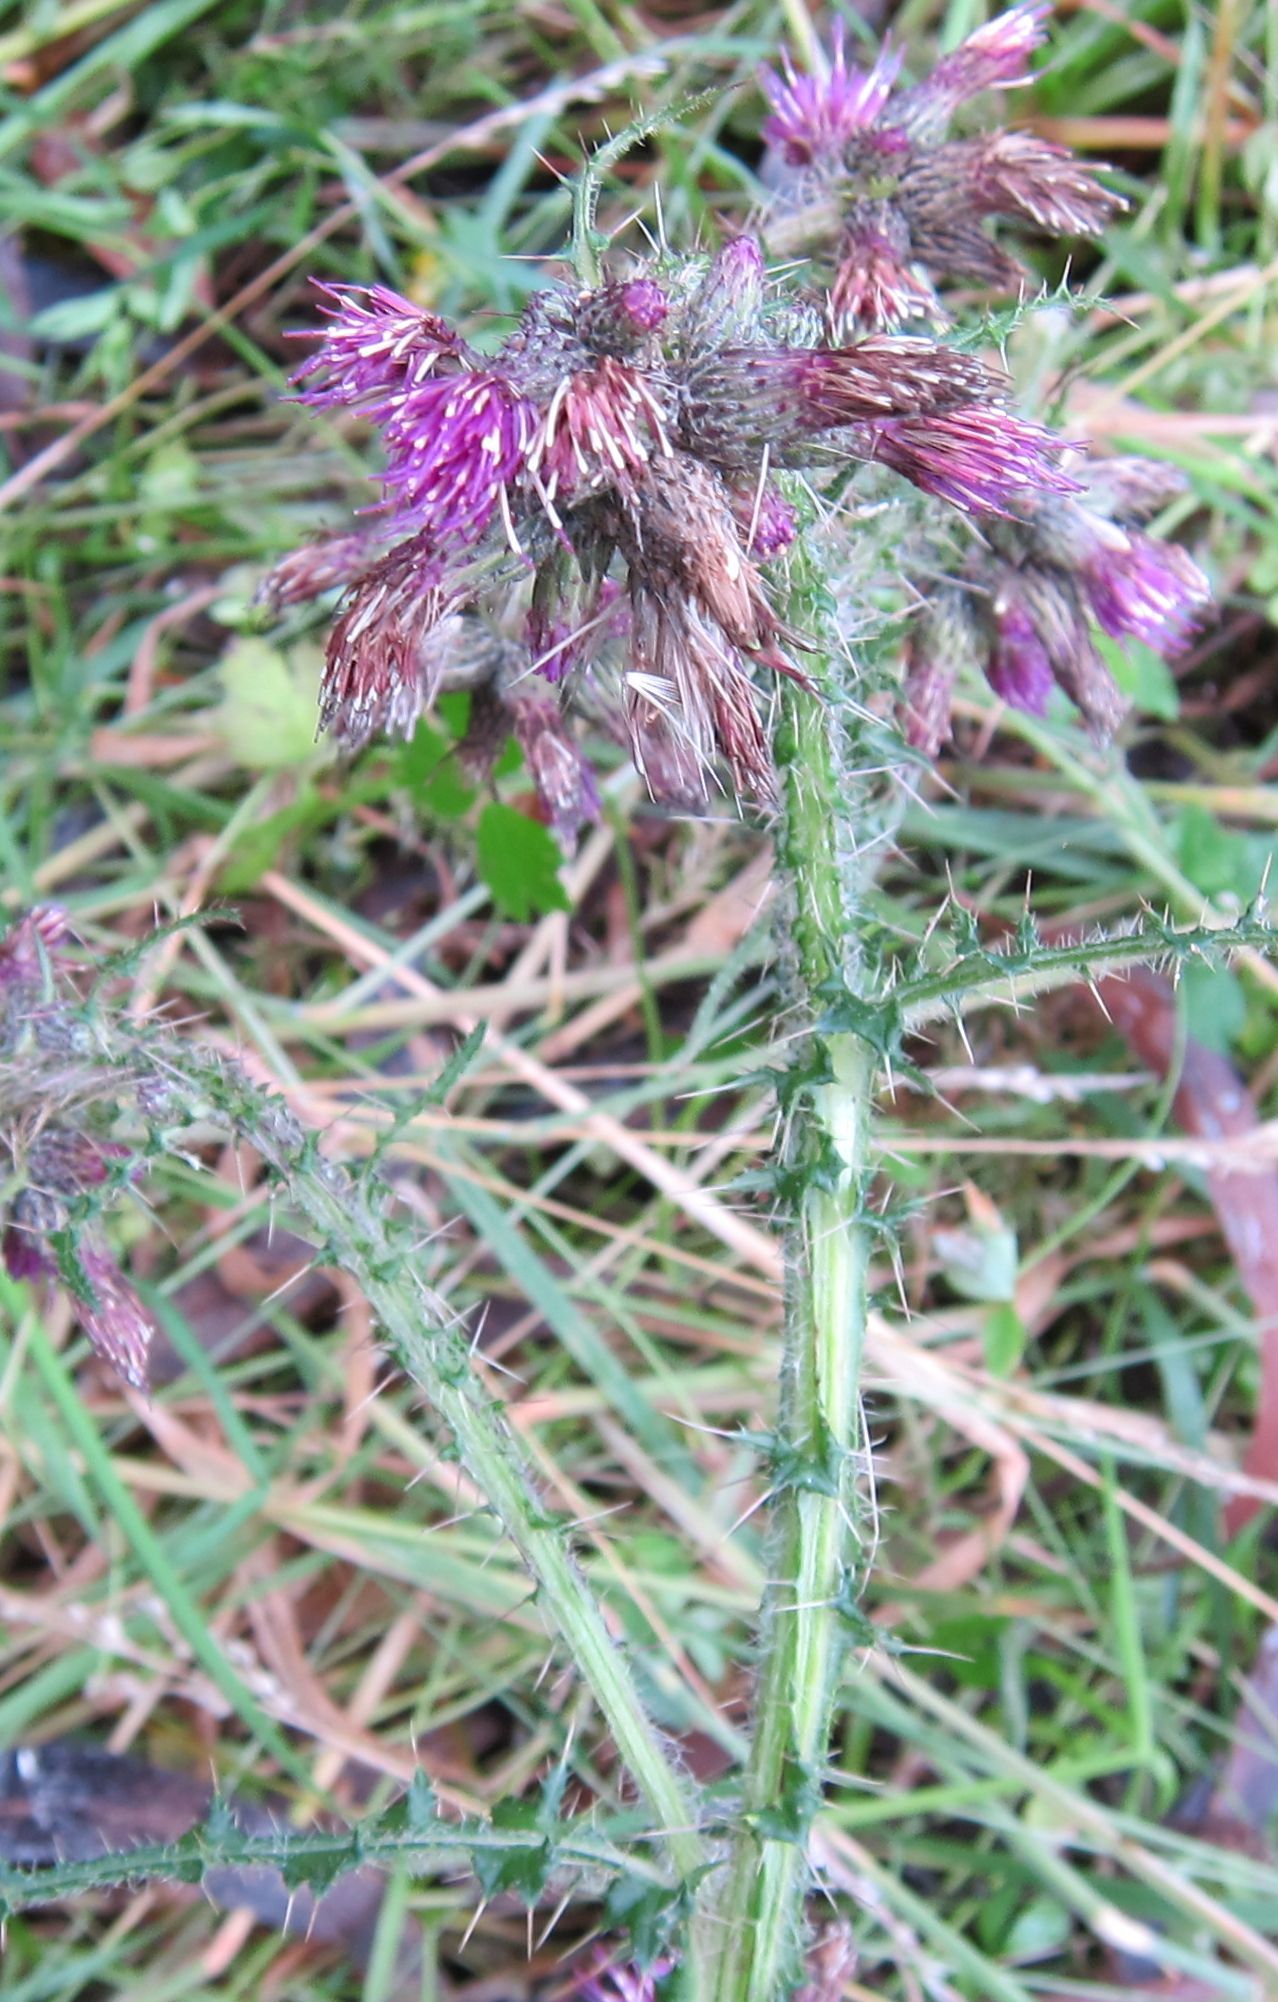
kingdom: Plantae
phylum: Tracheophyta
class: Magnoliopsida
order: Asterales
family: Asteraceae
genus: Cirsium
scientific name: Cirsium palustre
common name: Marsh thistle
